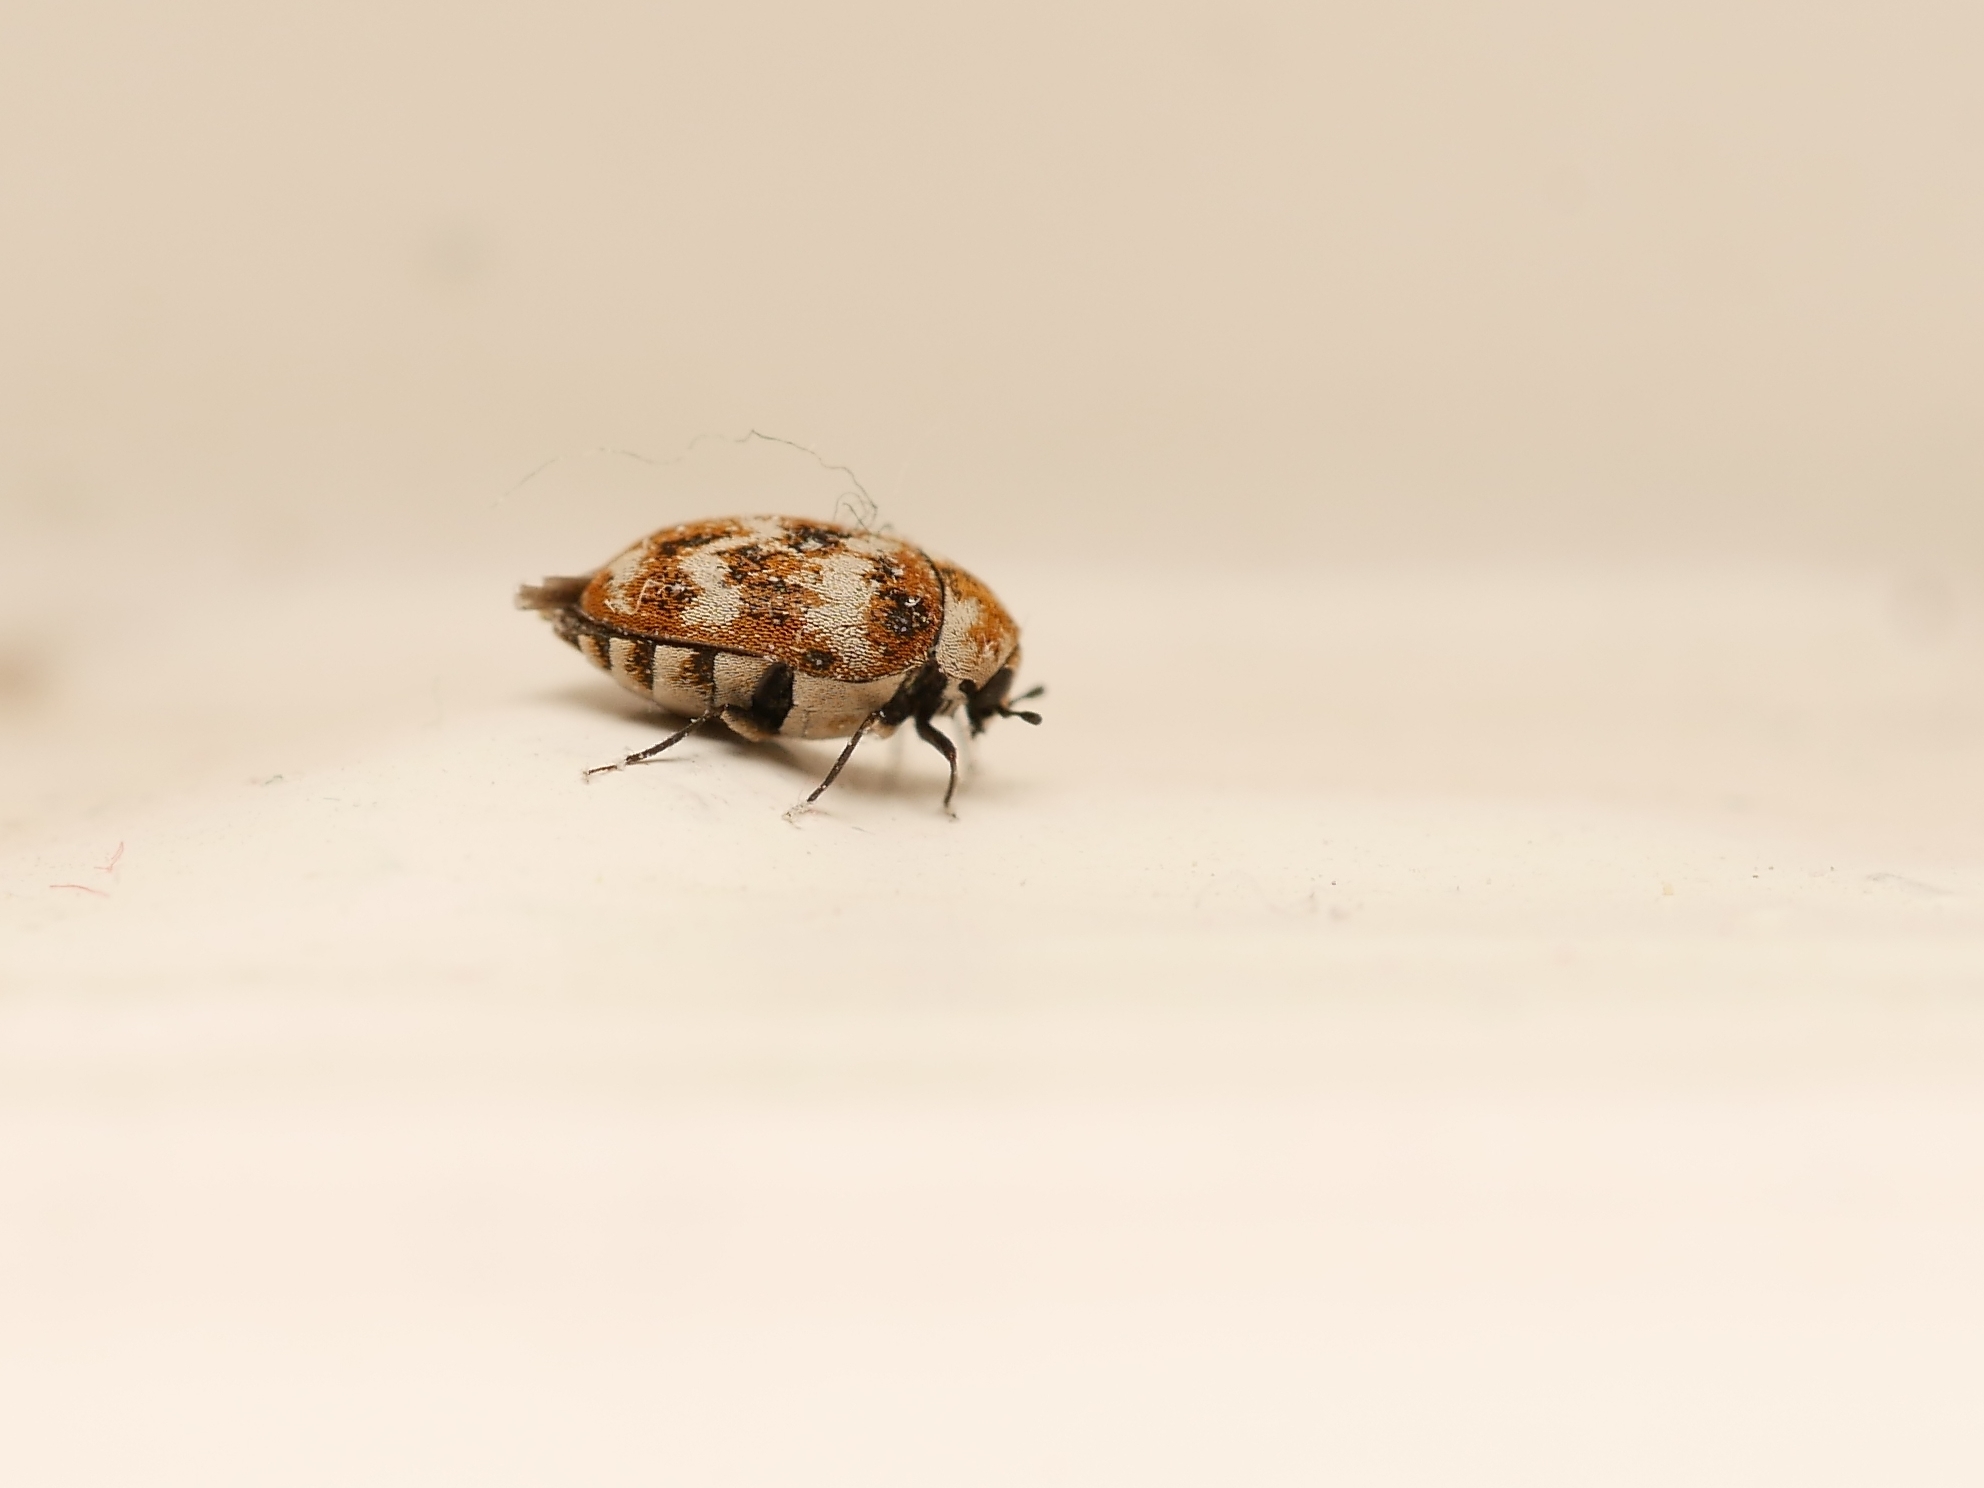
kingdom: Animalia
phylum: Arthropoda
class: Insecta
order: Coleoptera
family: Dermestidae
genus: Anthrenus
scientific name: Anthrenus verbasci
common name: Varied carpet beetle
